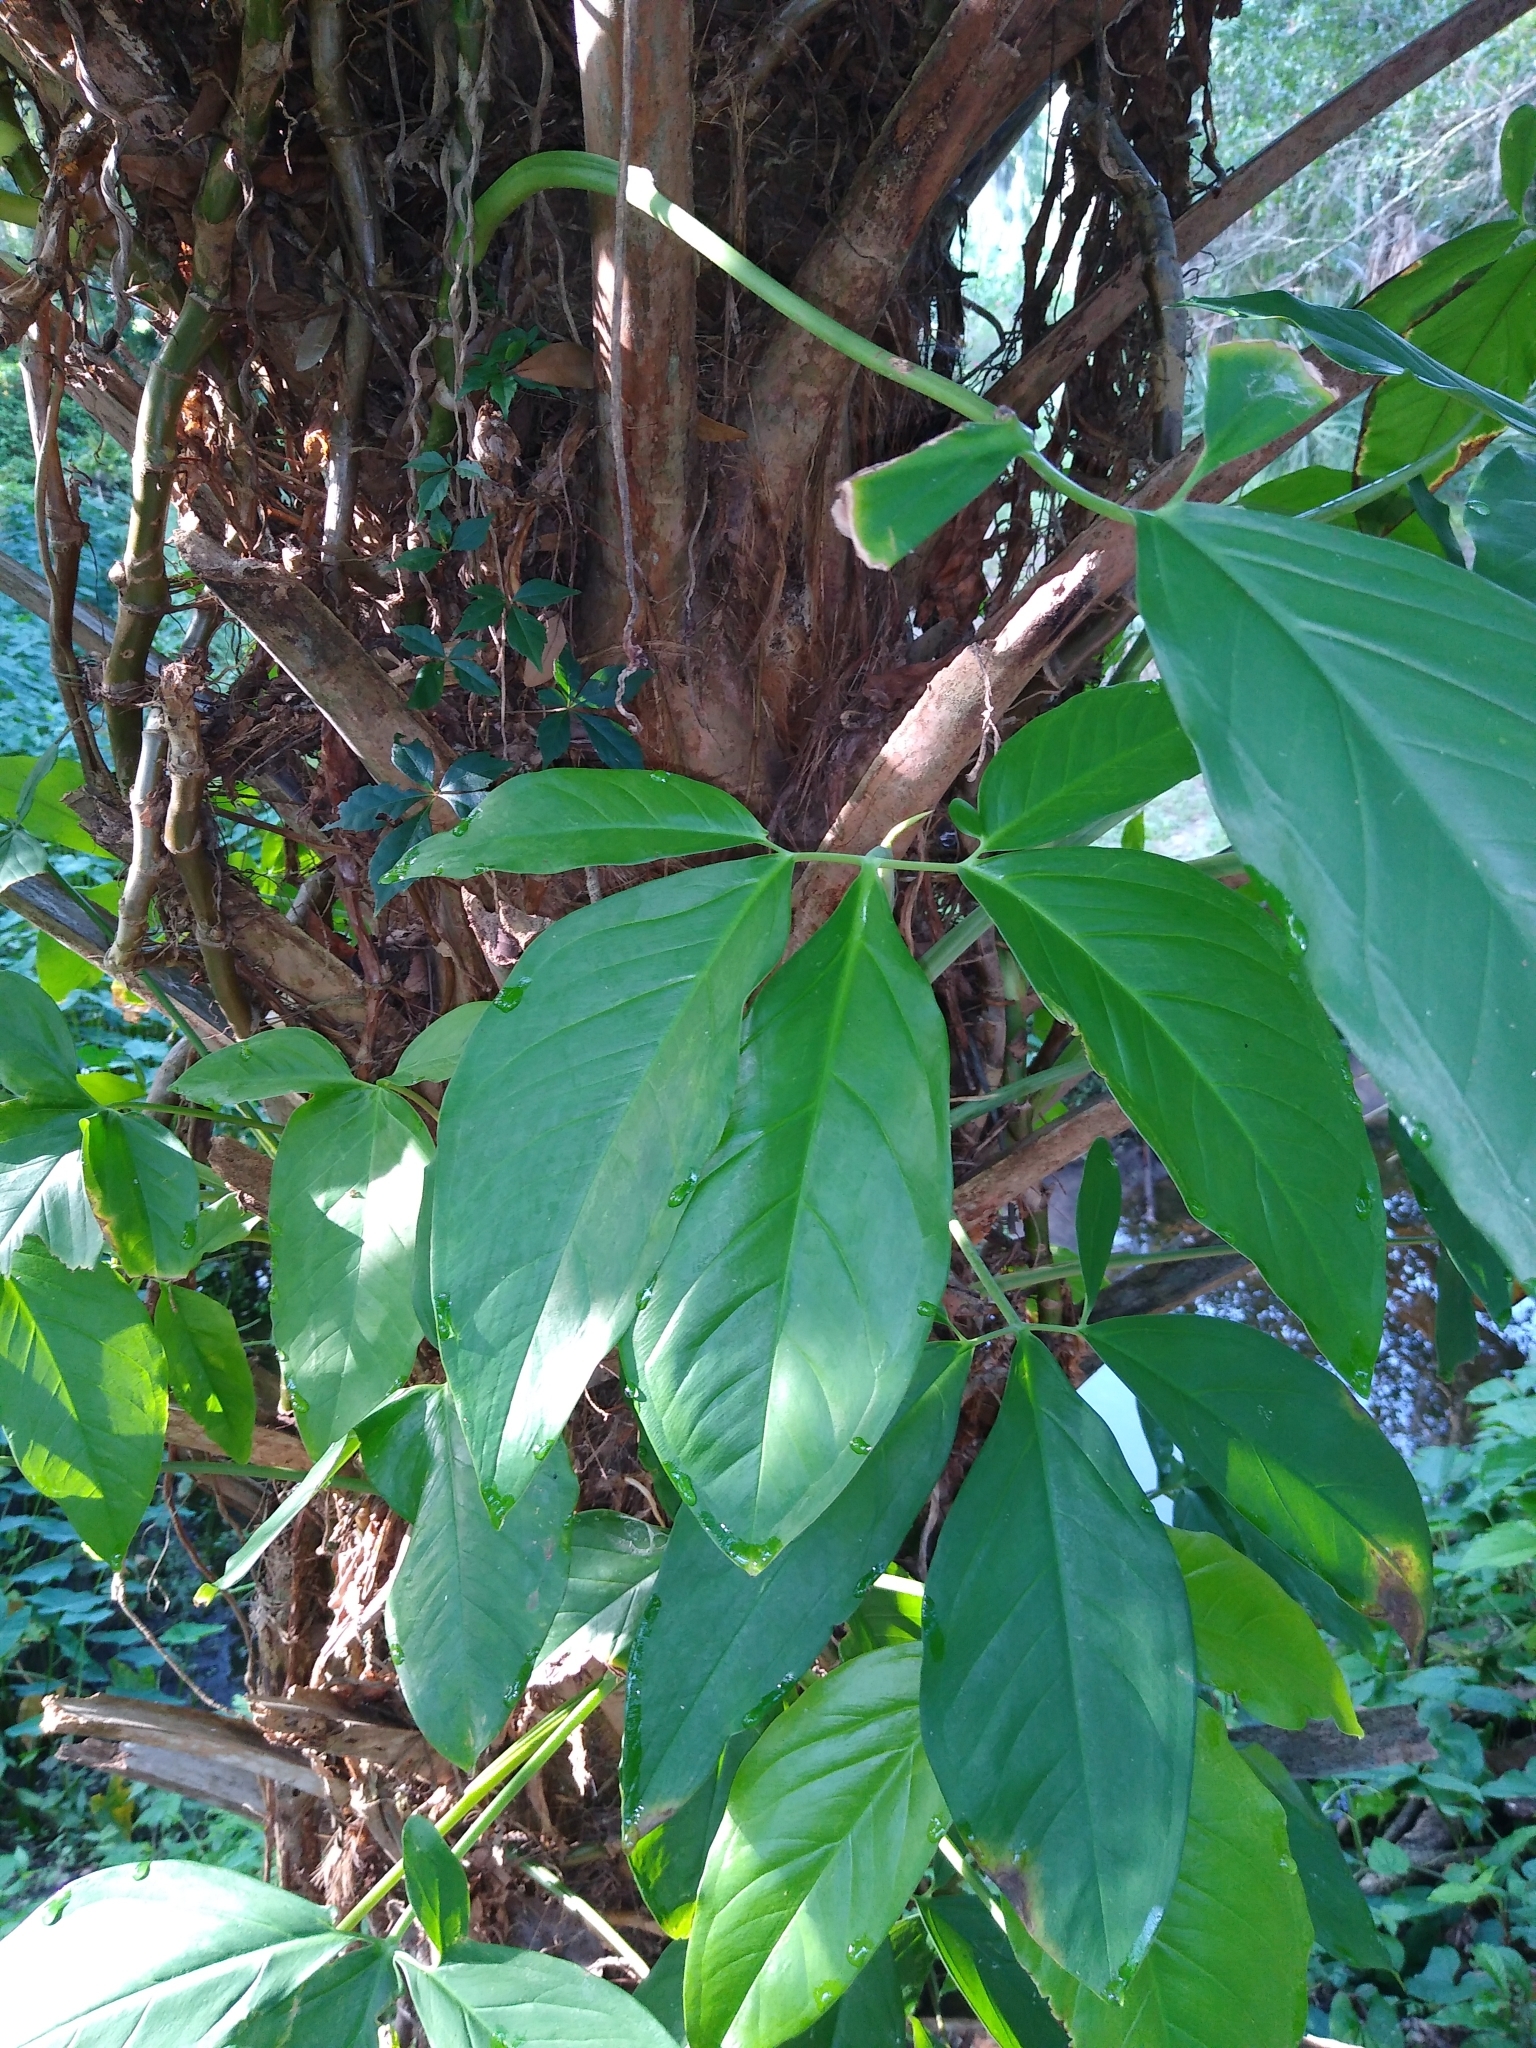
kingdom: Plantae
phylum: Tracheophyta
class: Liliopsida
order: Alismatales
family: Araceae
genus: Syngonium
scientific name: Syngonium podophyllum
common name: American evergreen
